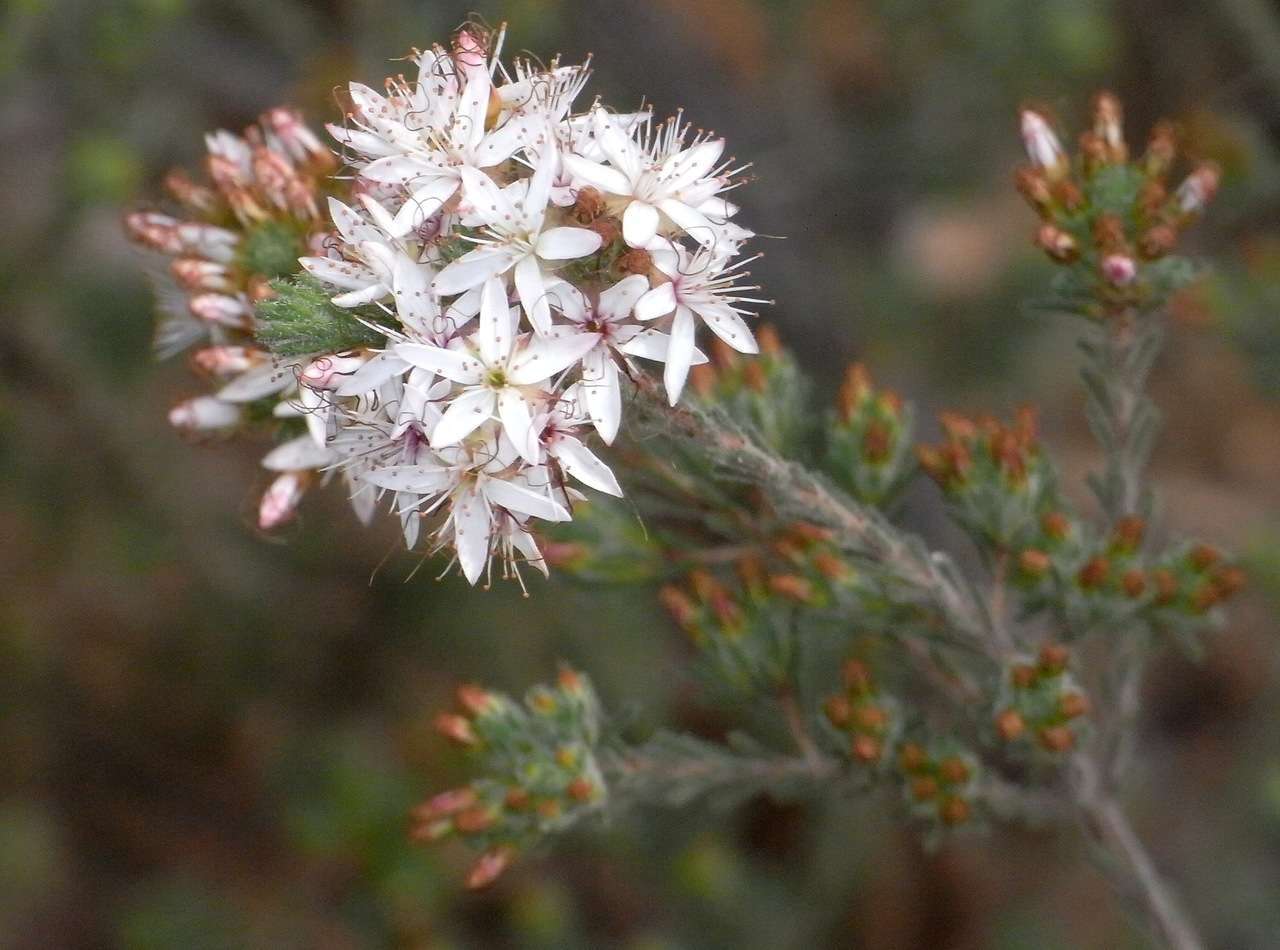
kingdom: Plantae
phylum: Tracheophyta
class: Magnoliopsida
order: Myrtales
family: Myrtaceae
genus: Calytrix
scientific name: Calytrix tetragona
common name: Common fringe myrtle
